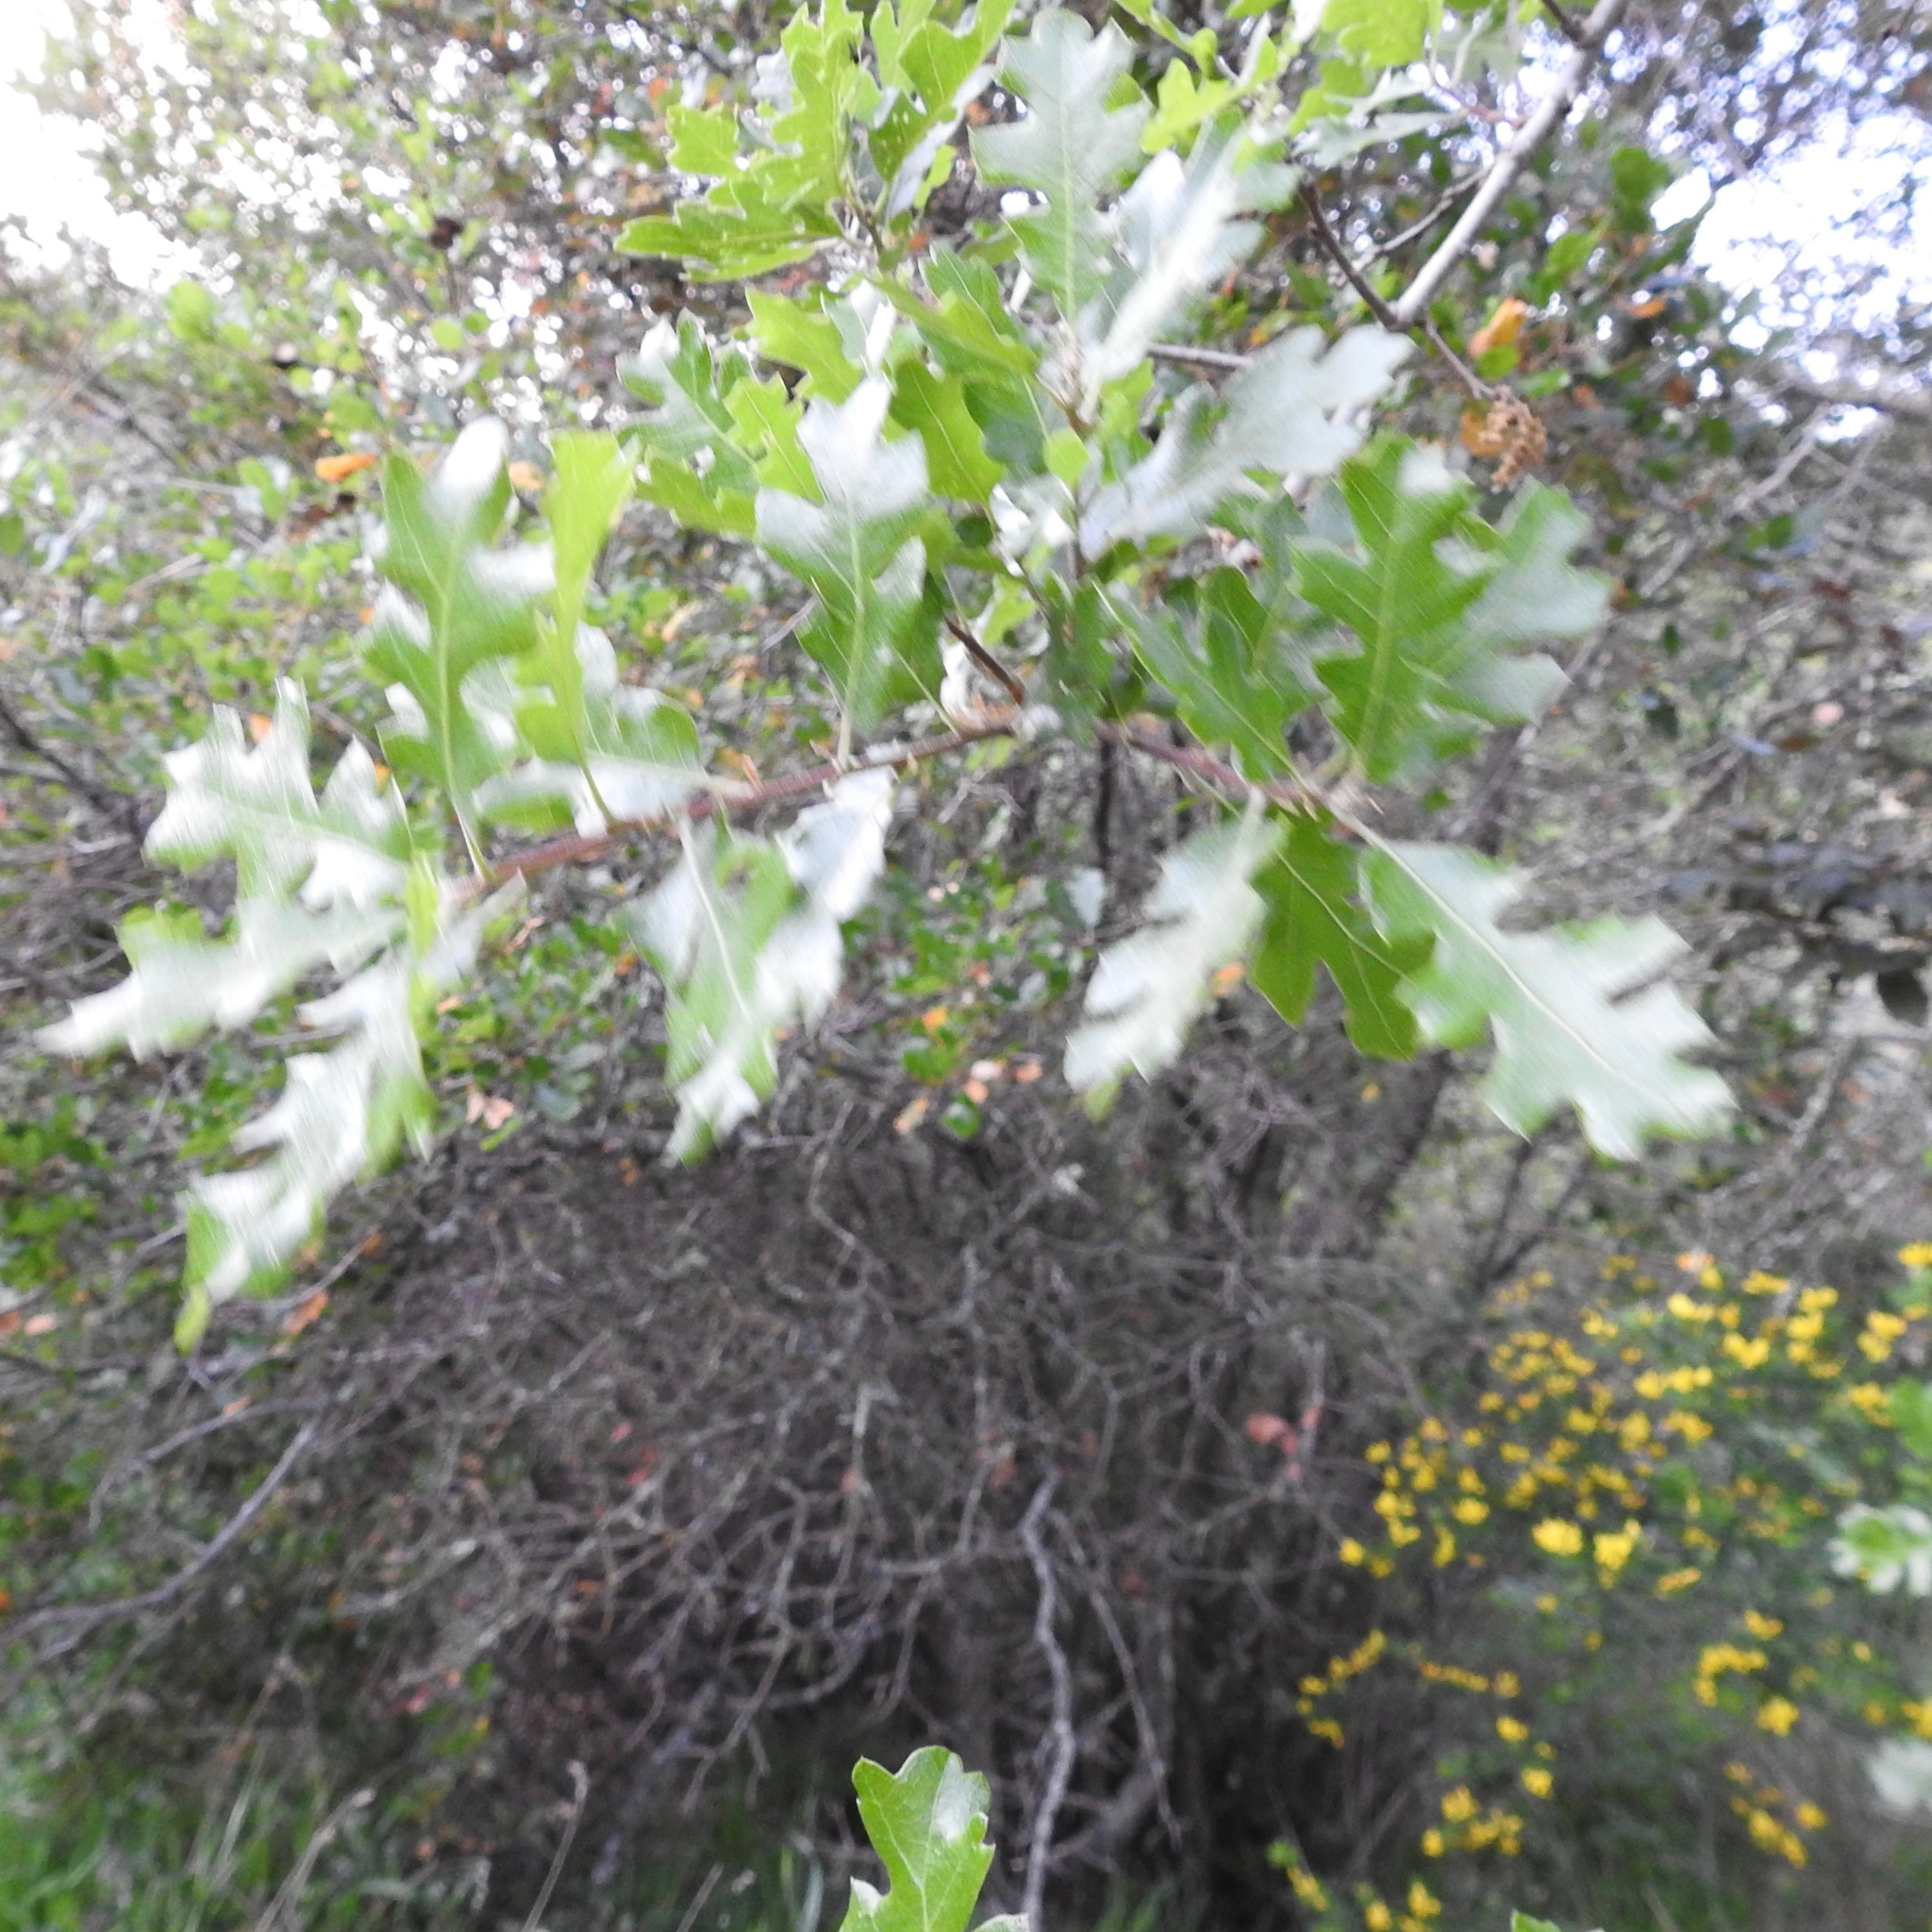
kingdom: Plantae
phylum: Tracheophyta
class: Magnoliopsida
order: Fagales
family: Fagaceae
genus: Quercus
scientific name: Quercus lobata
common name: Valley oak
